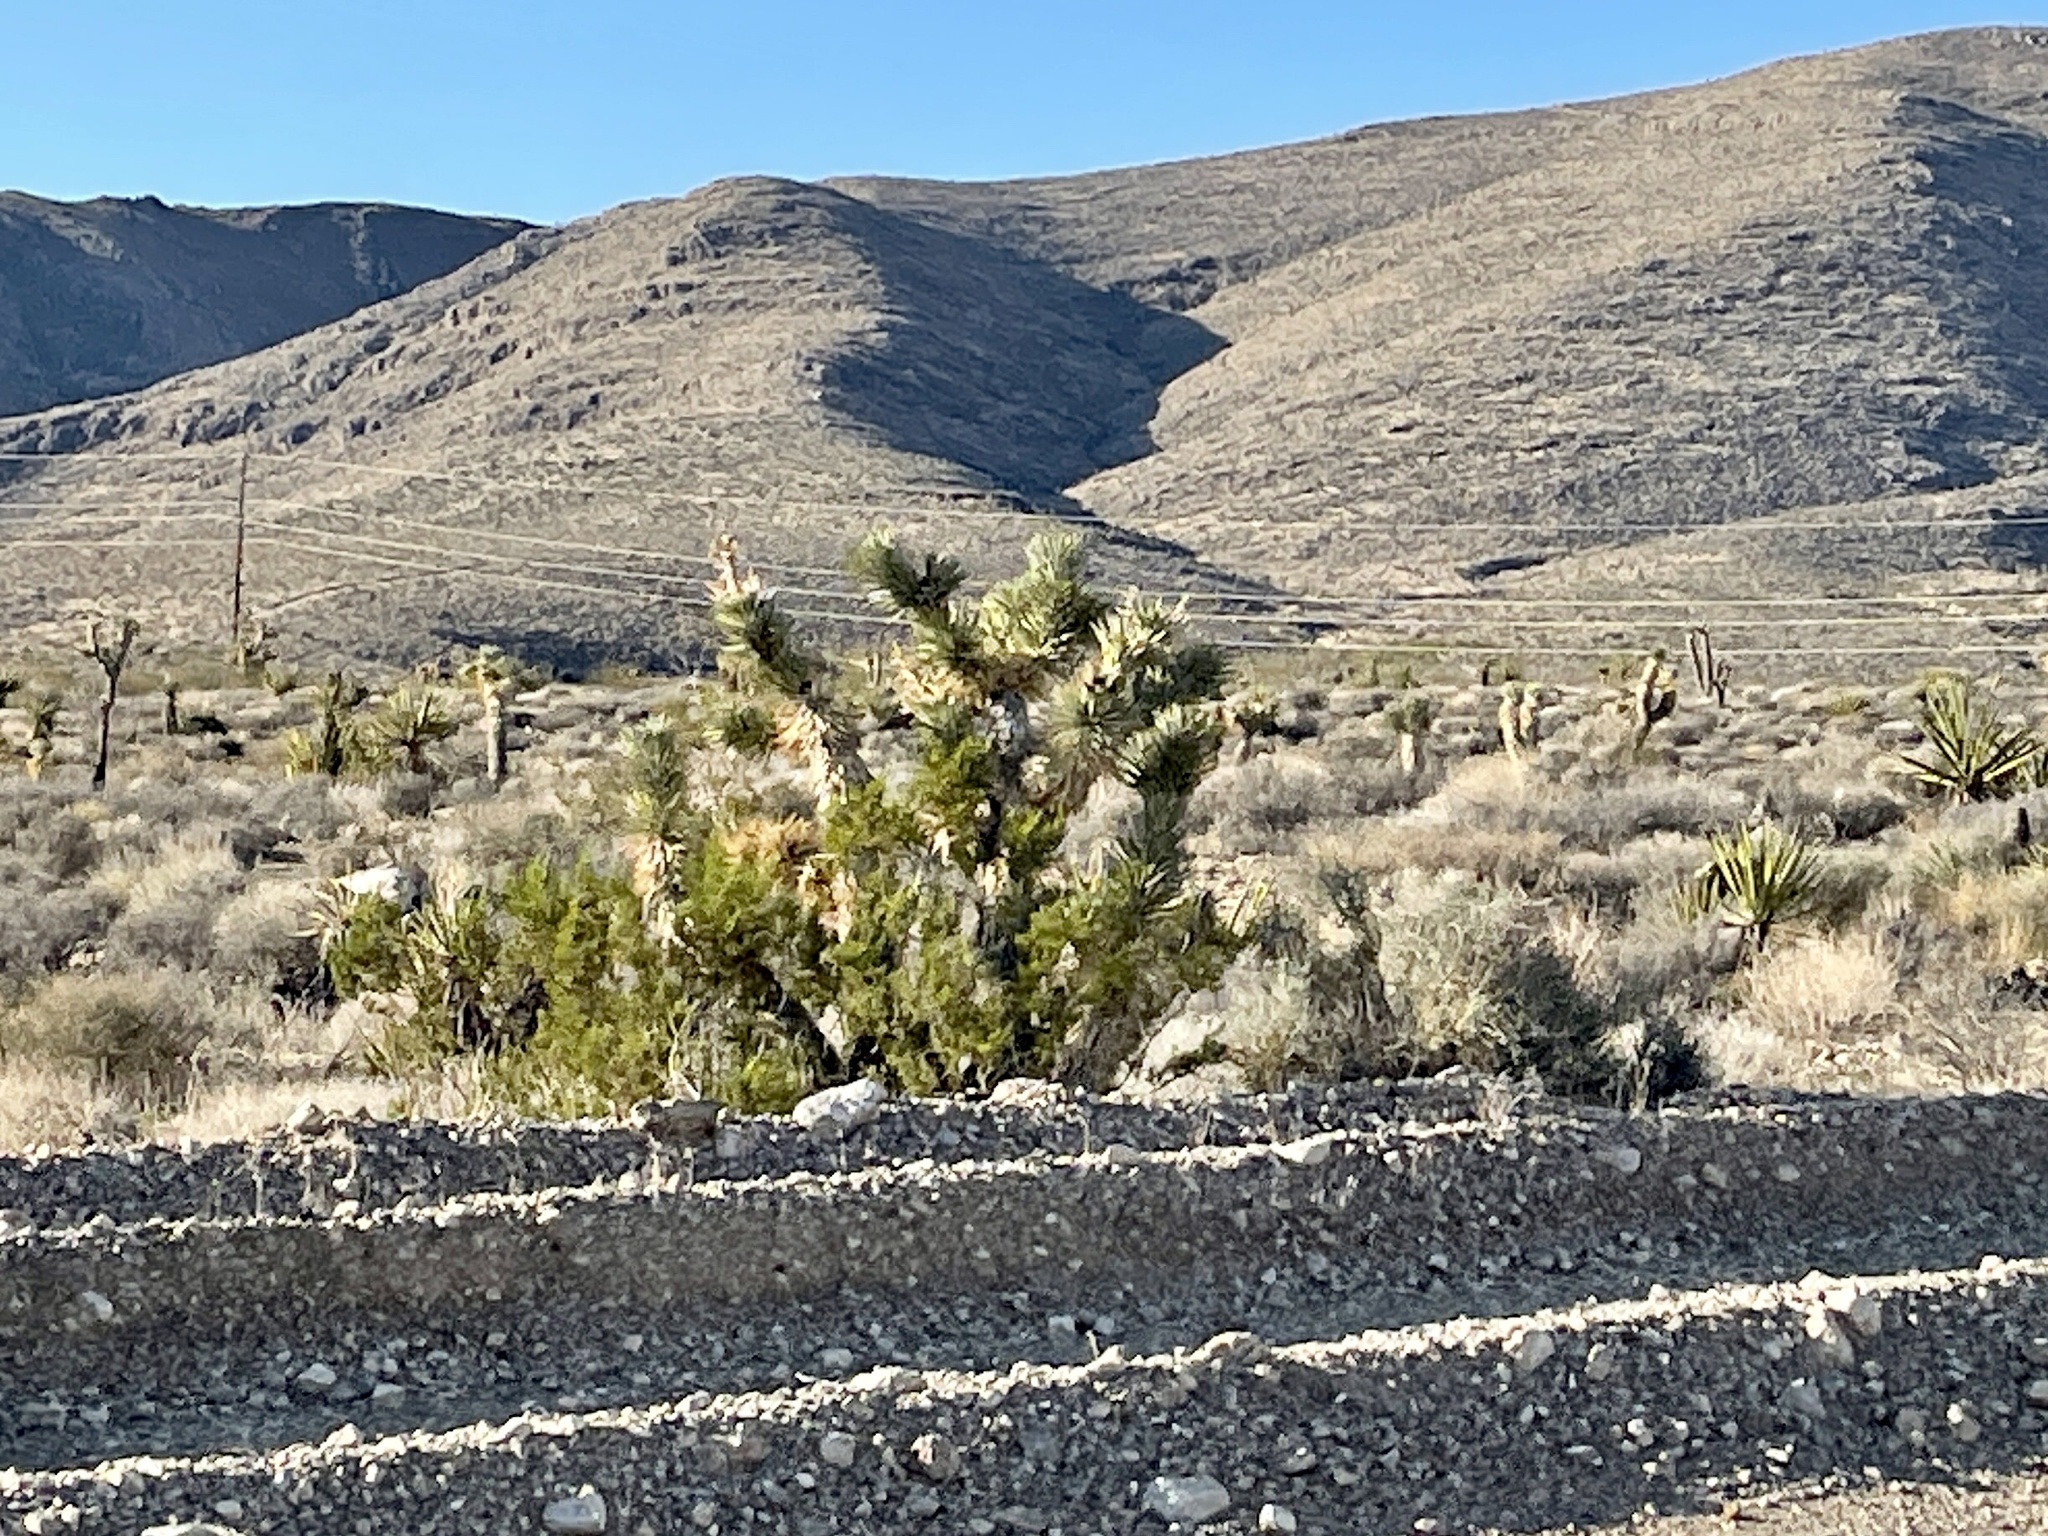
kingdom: Plantae
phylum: Tracheophyta
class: Liliopsida
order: Asparagales
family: Asparagaceae
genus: Yucca
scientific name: Yucca brevifolia
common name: Joshua tree
